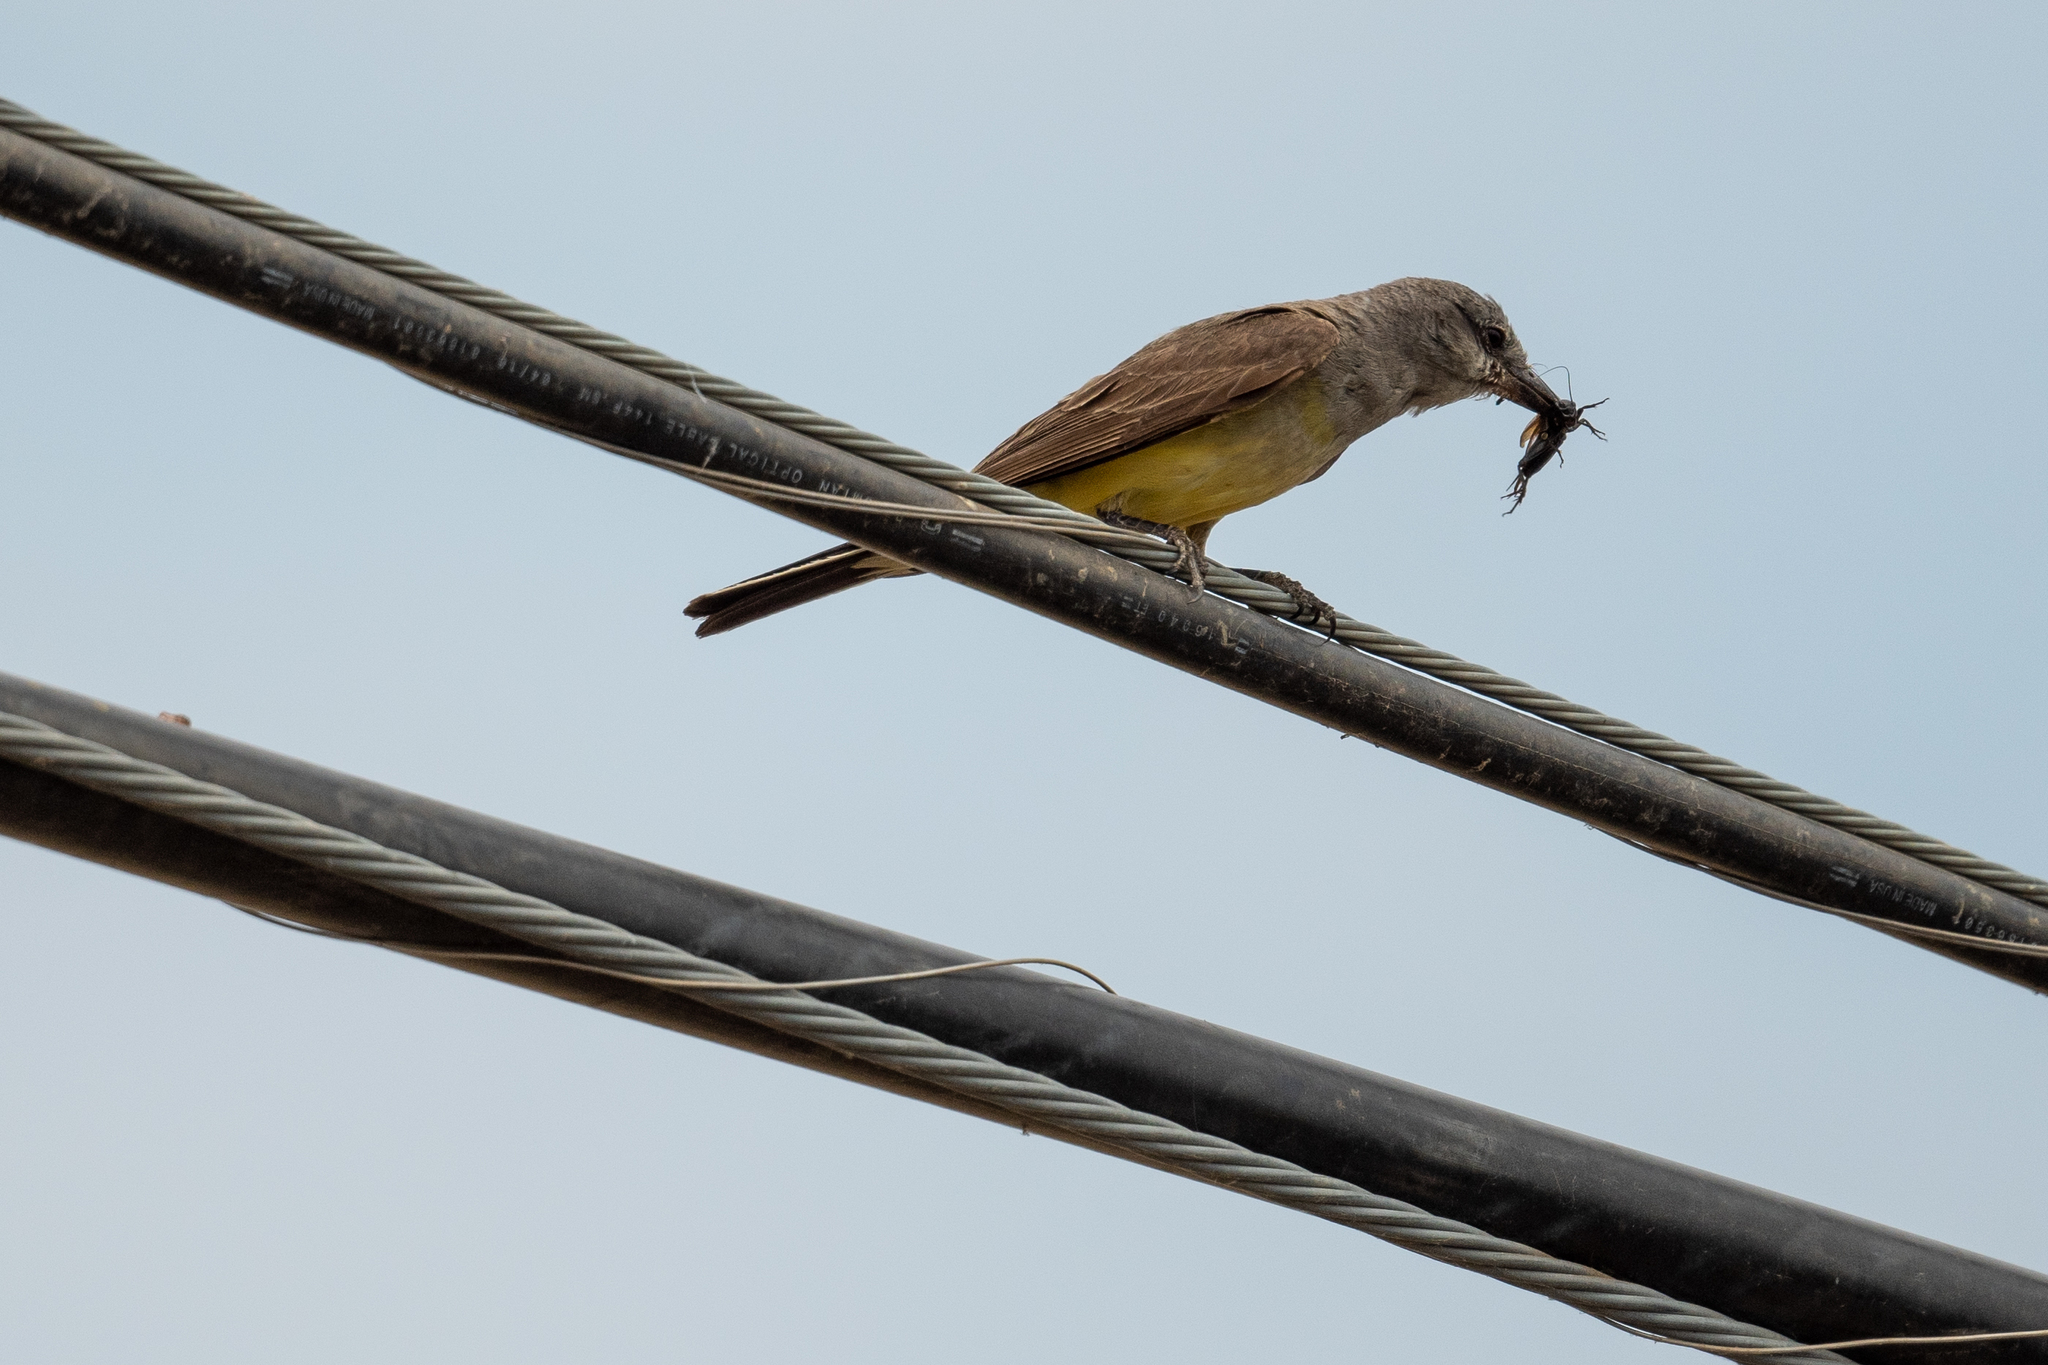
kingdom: Animalia
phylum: Chordata
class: Aves
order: Passeriformes
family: Tyrannidae
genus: Tyrannus
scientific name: Tyrannus verticalis
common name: Western kingbird
